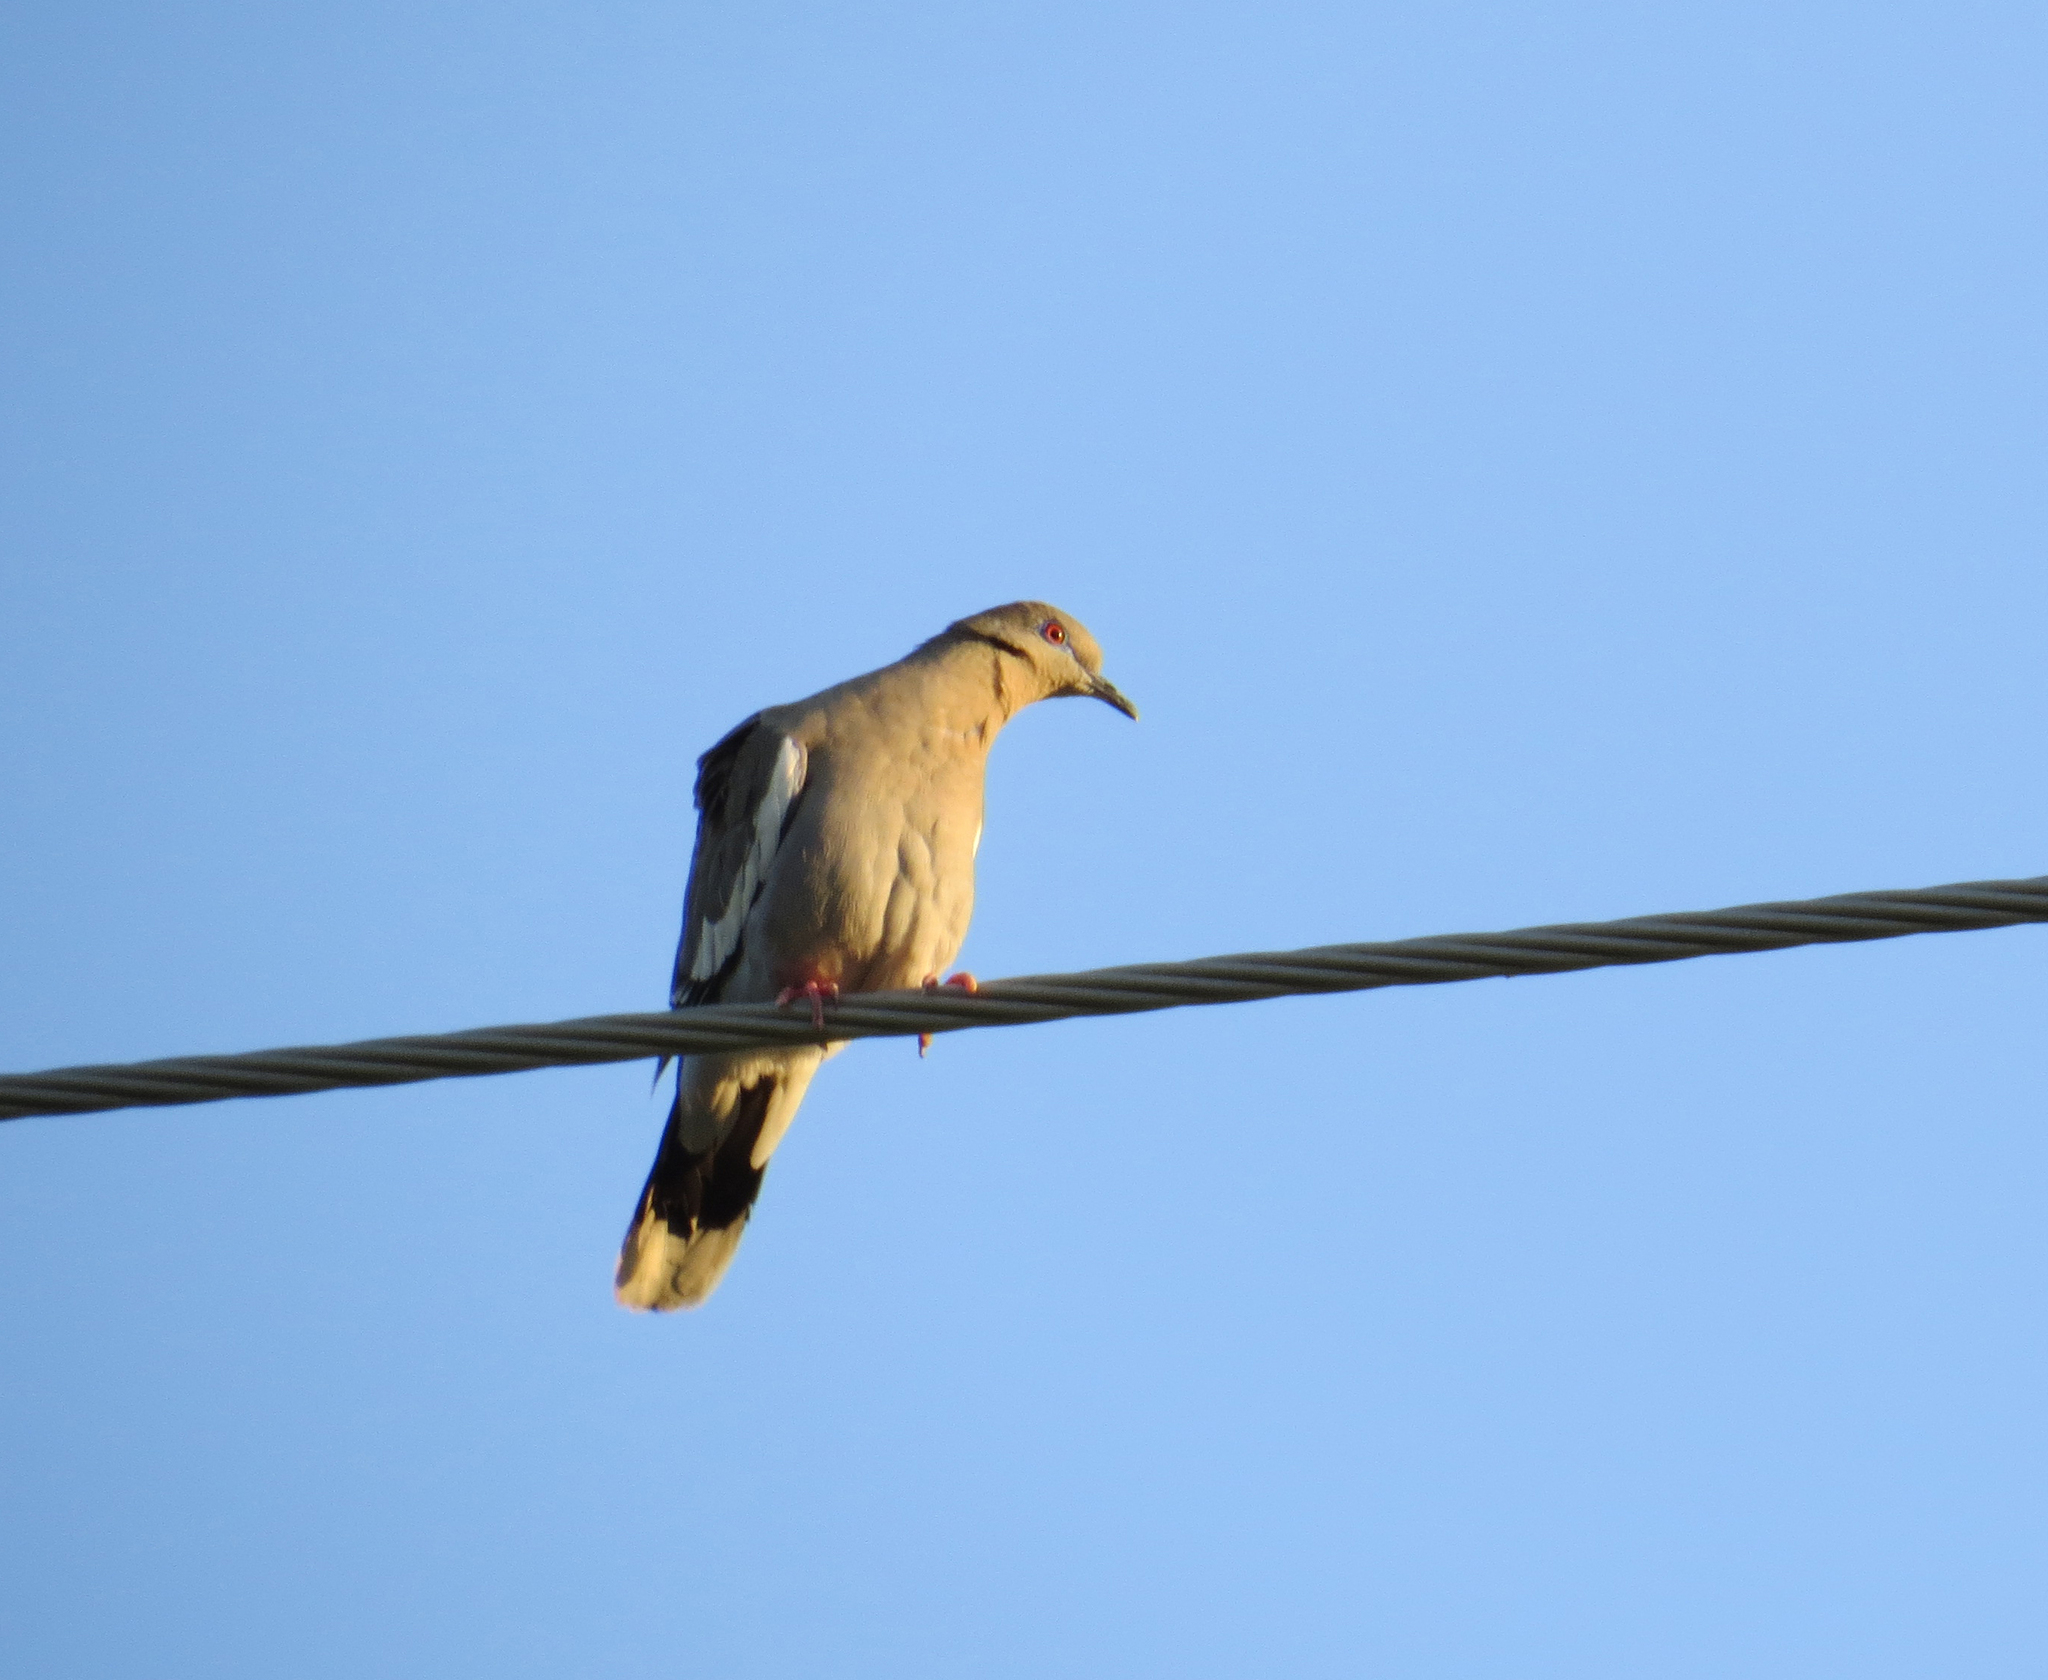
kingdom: Animalia
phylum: Chordata
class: Aves
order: Columbiformes
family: Columbidae
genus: Zenaida
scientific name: Zenaida asiatica
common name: White-winged dove
